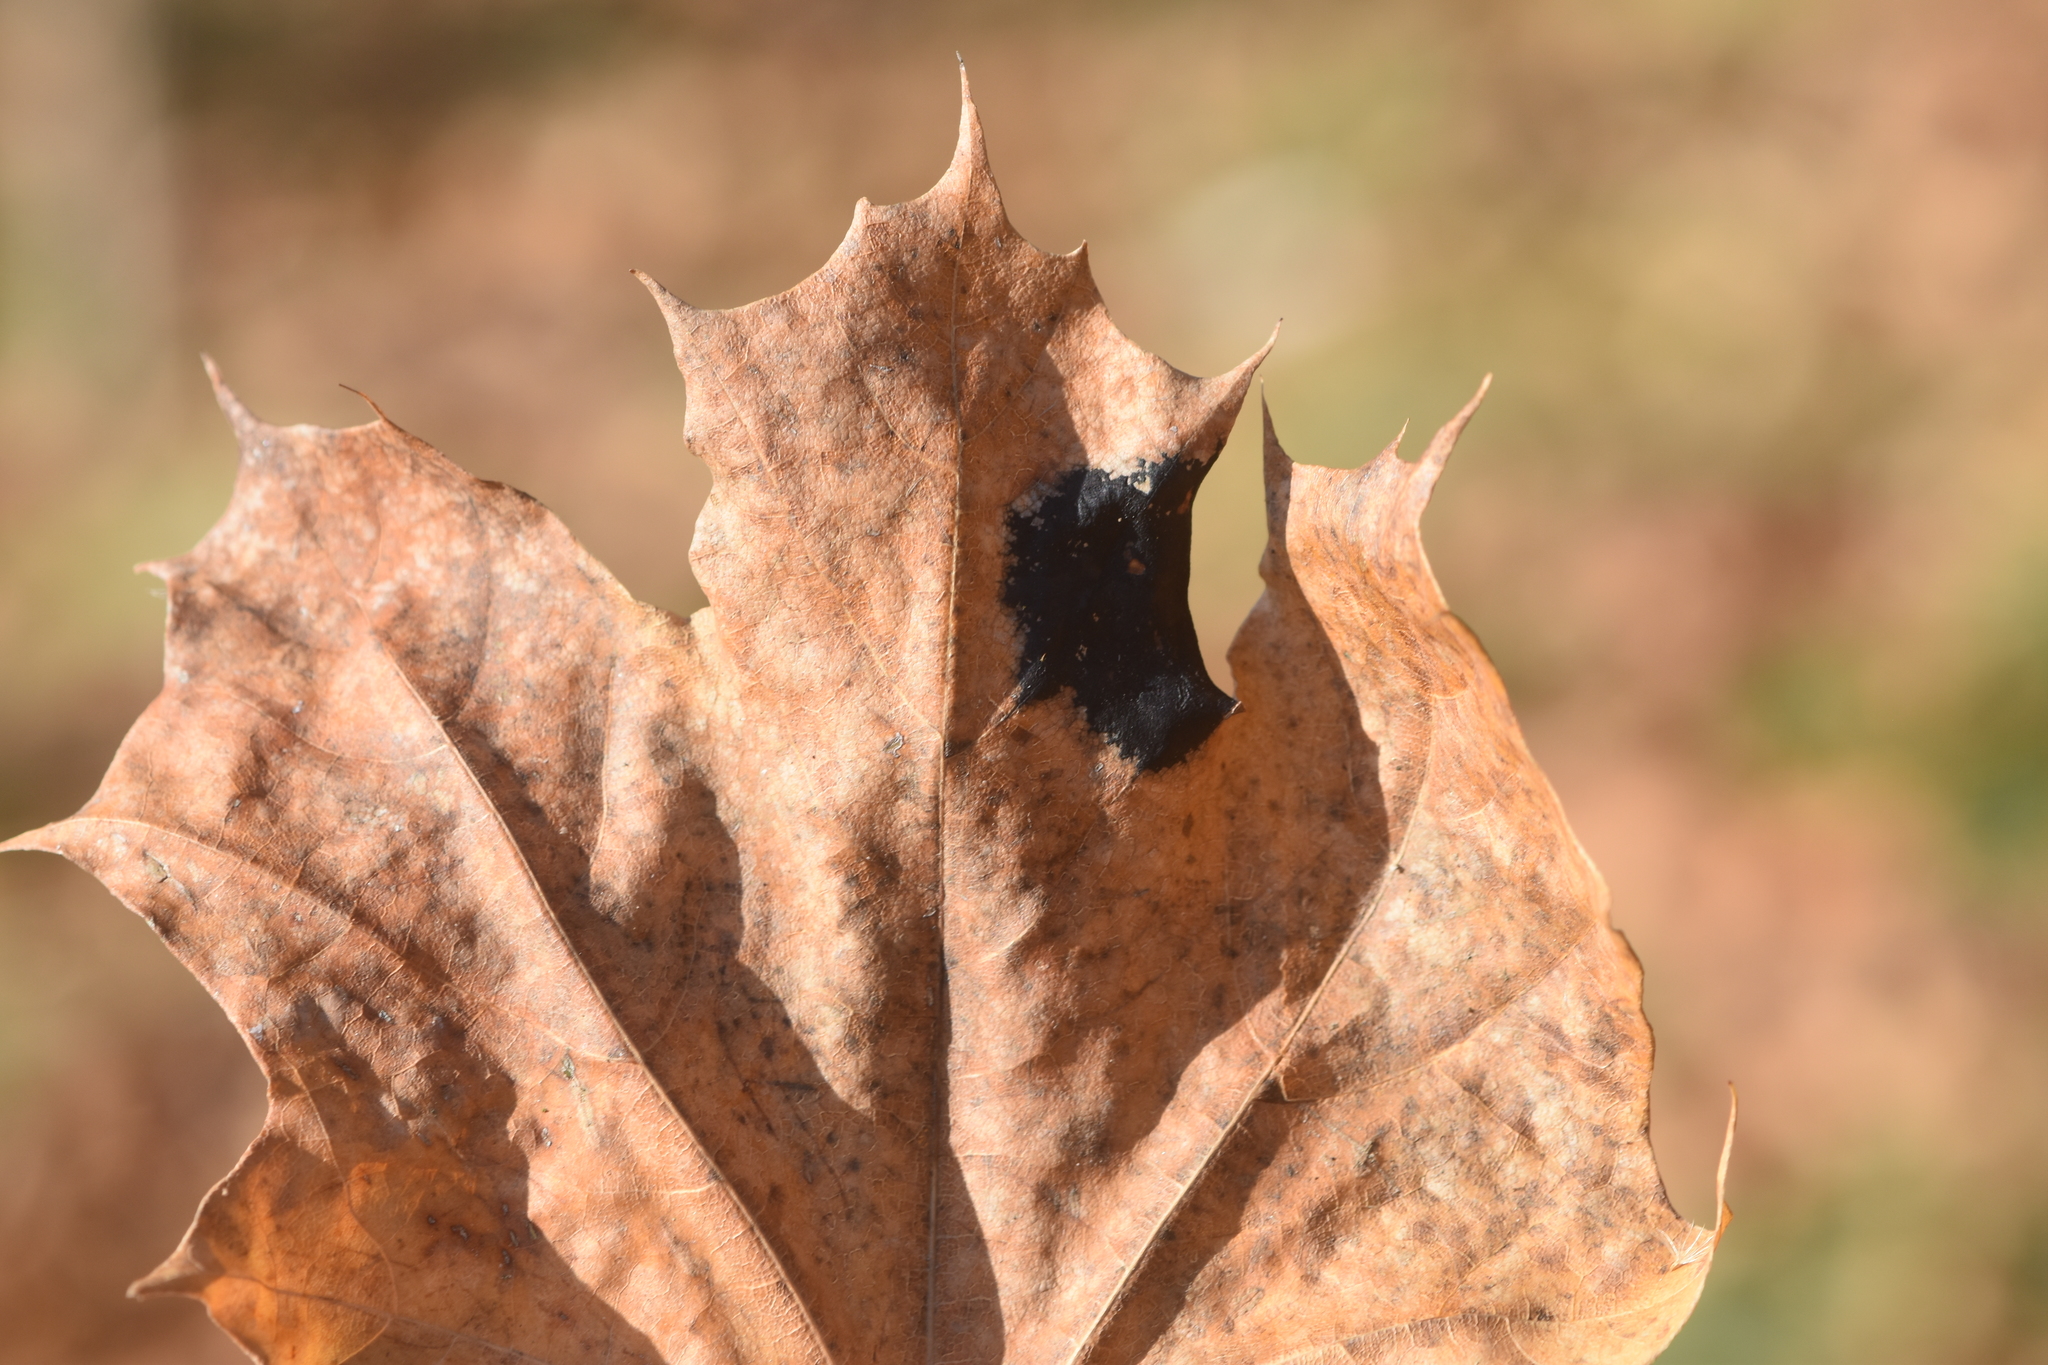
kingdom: Fungi
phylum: Ascomycota
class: Leotiomycetes
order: Rhytismatales
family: Rhytismataceae
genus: Rhytisma
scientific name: Rhytisma acerinum
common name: European tar spot
